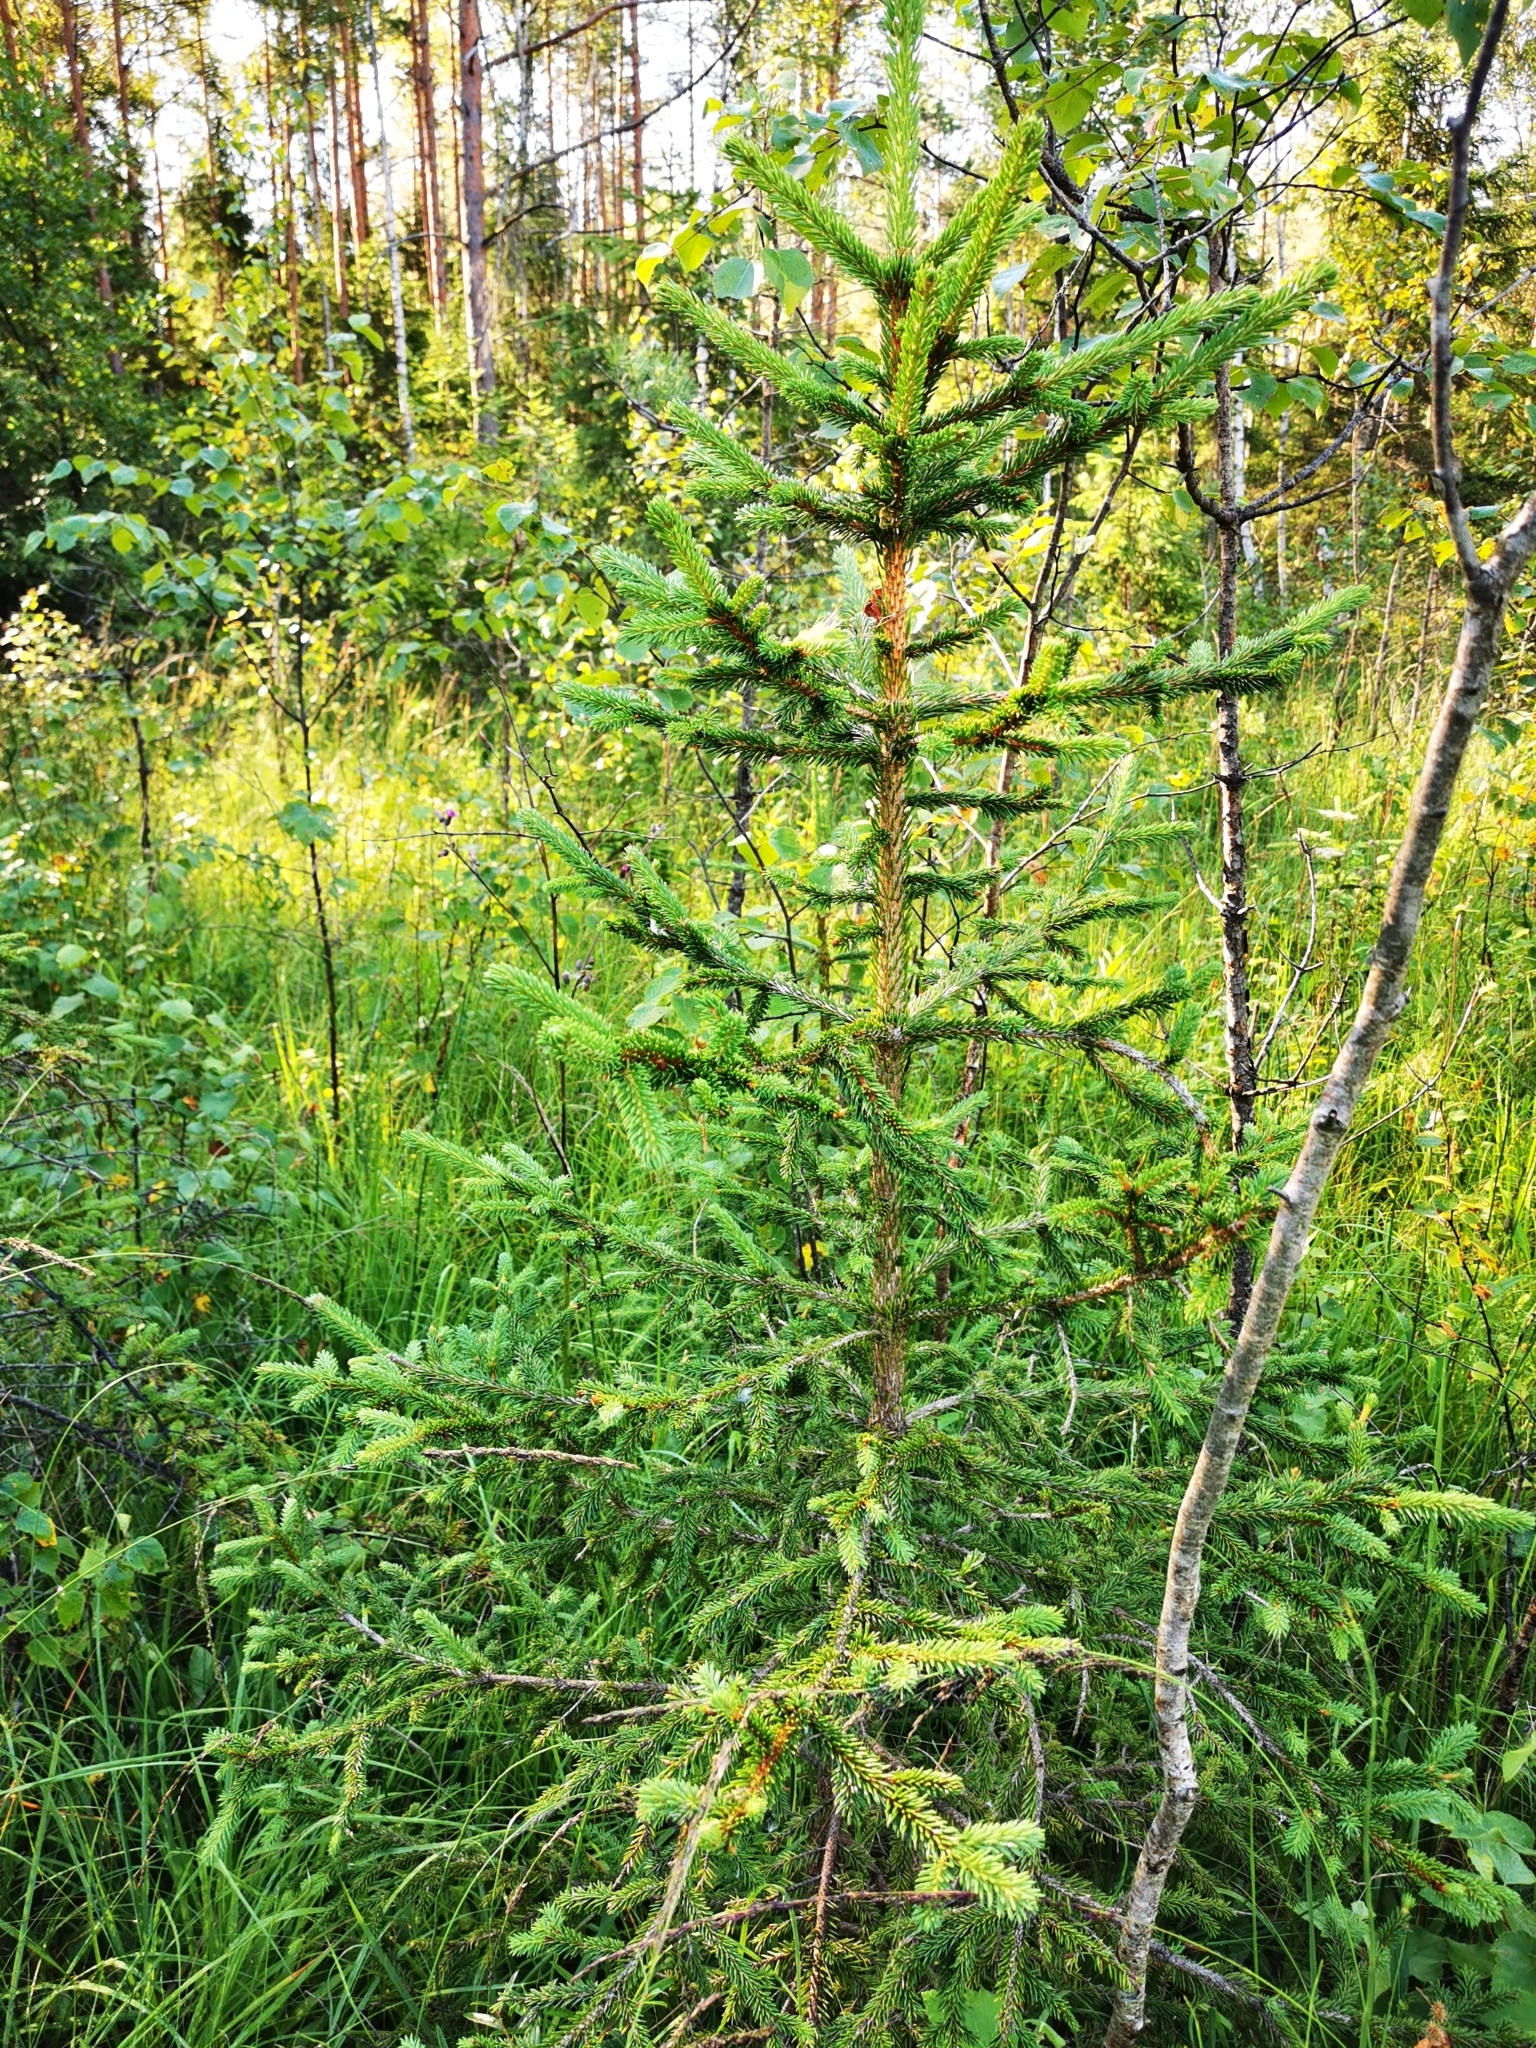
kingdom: Plantae
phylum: Tracheophyta
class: Pinopsida
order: Pinales
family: Pinaceae
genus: Picea
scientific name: Picea abies
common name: Norway spruce
